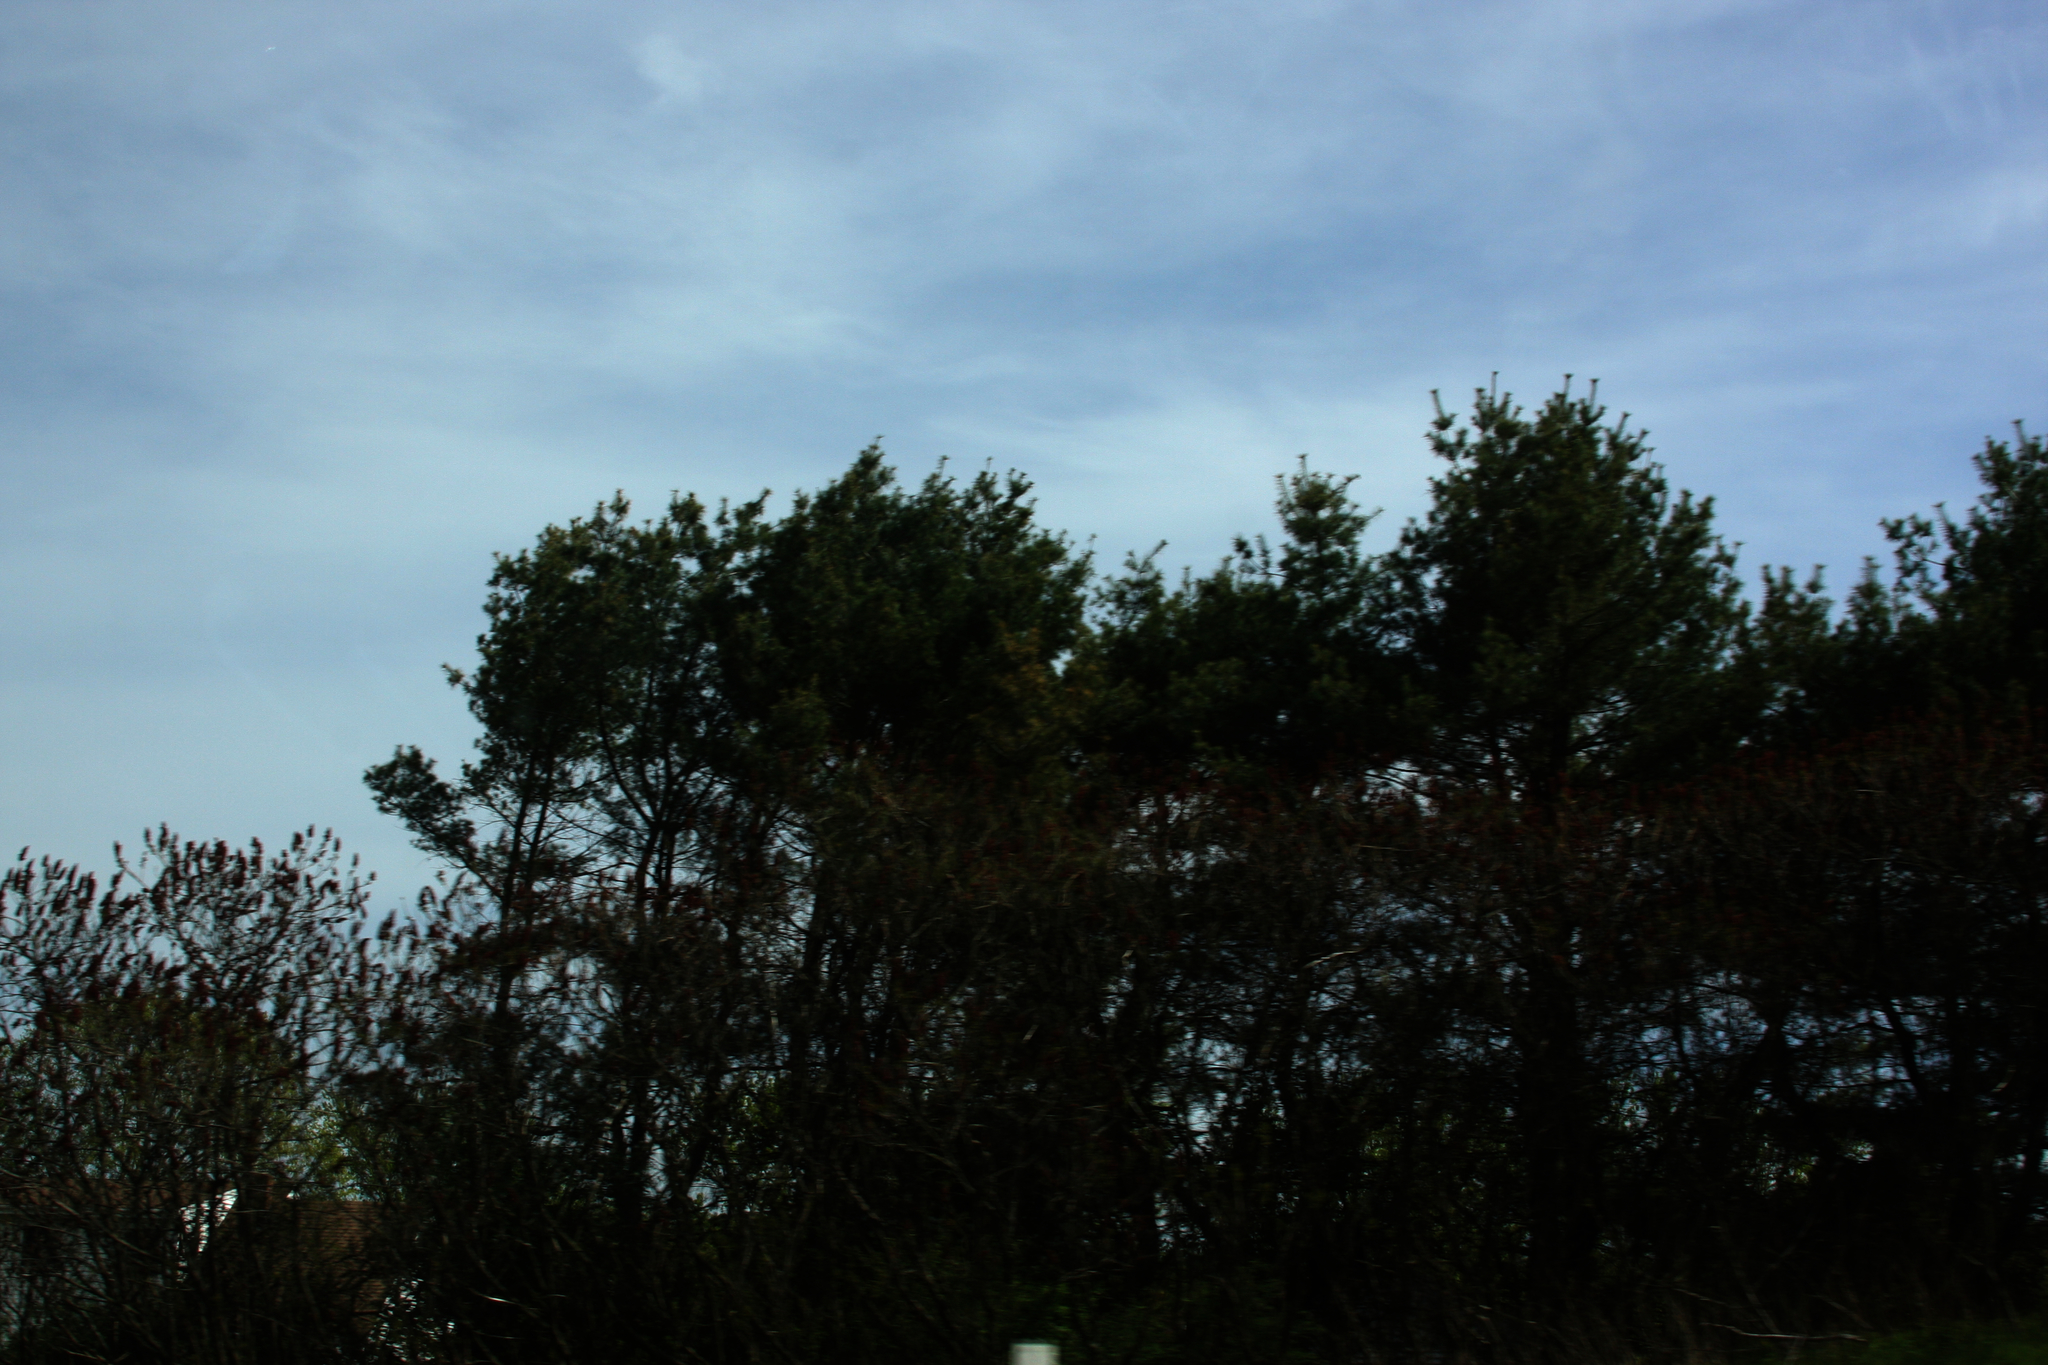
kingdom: Plantae
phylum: Tracheophyta
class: Pinopsida
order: Pinales
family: Pinaceae
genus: Pinus
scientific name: Pinus strobus
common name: Weymouth pine
